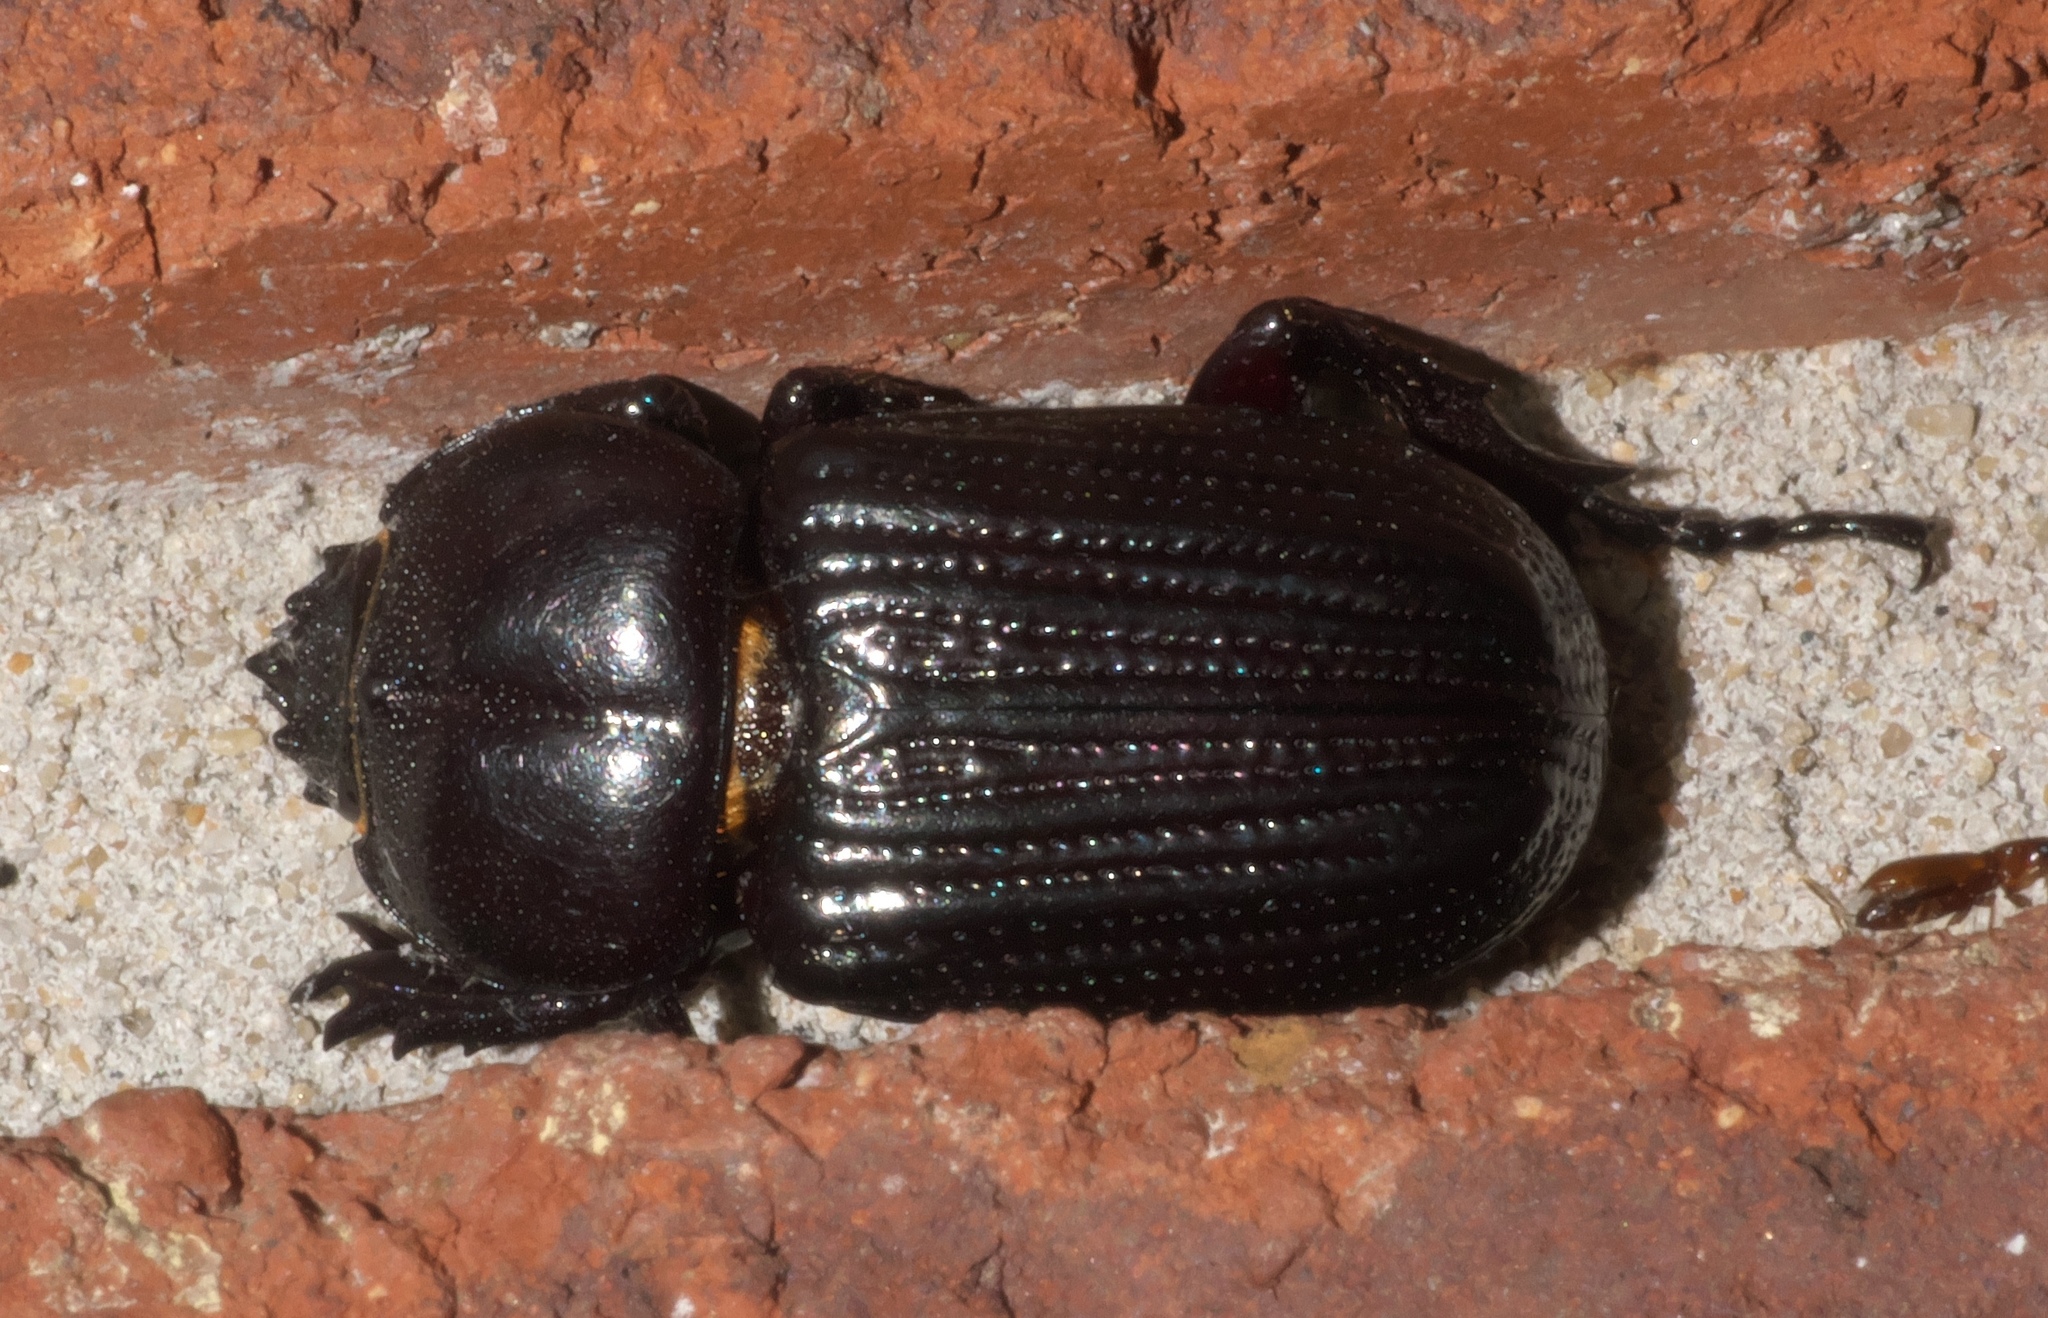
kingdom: Animalia
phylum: Arthropoda
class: Insecta
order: Coleoptera
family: Scarabaeidae
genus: Phileurus
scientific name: Phileurus valgus
